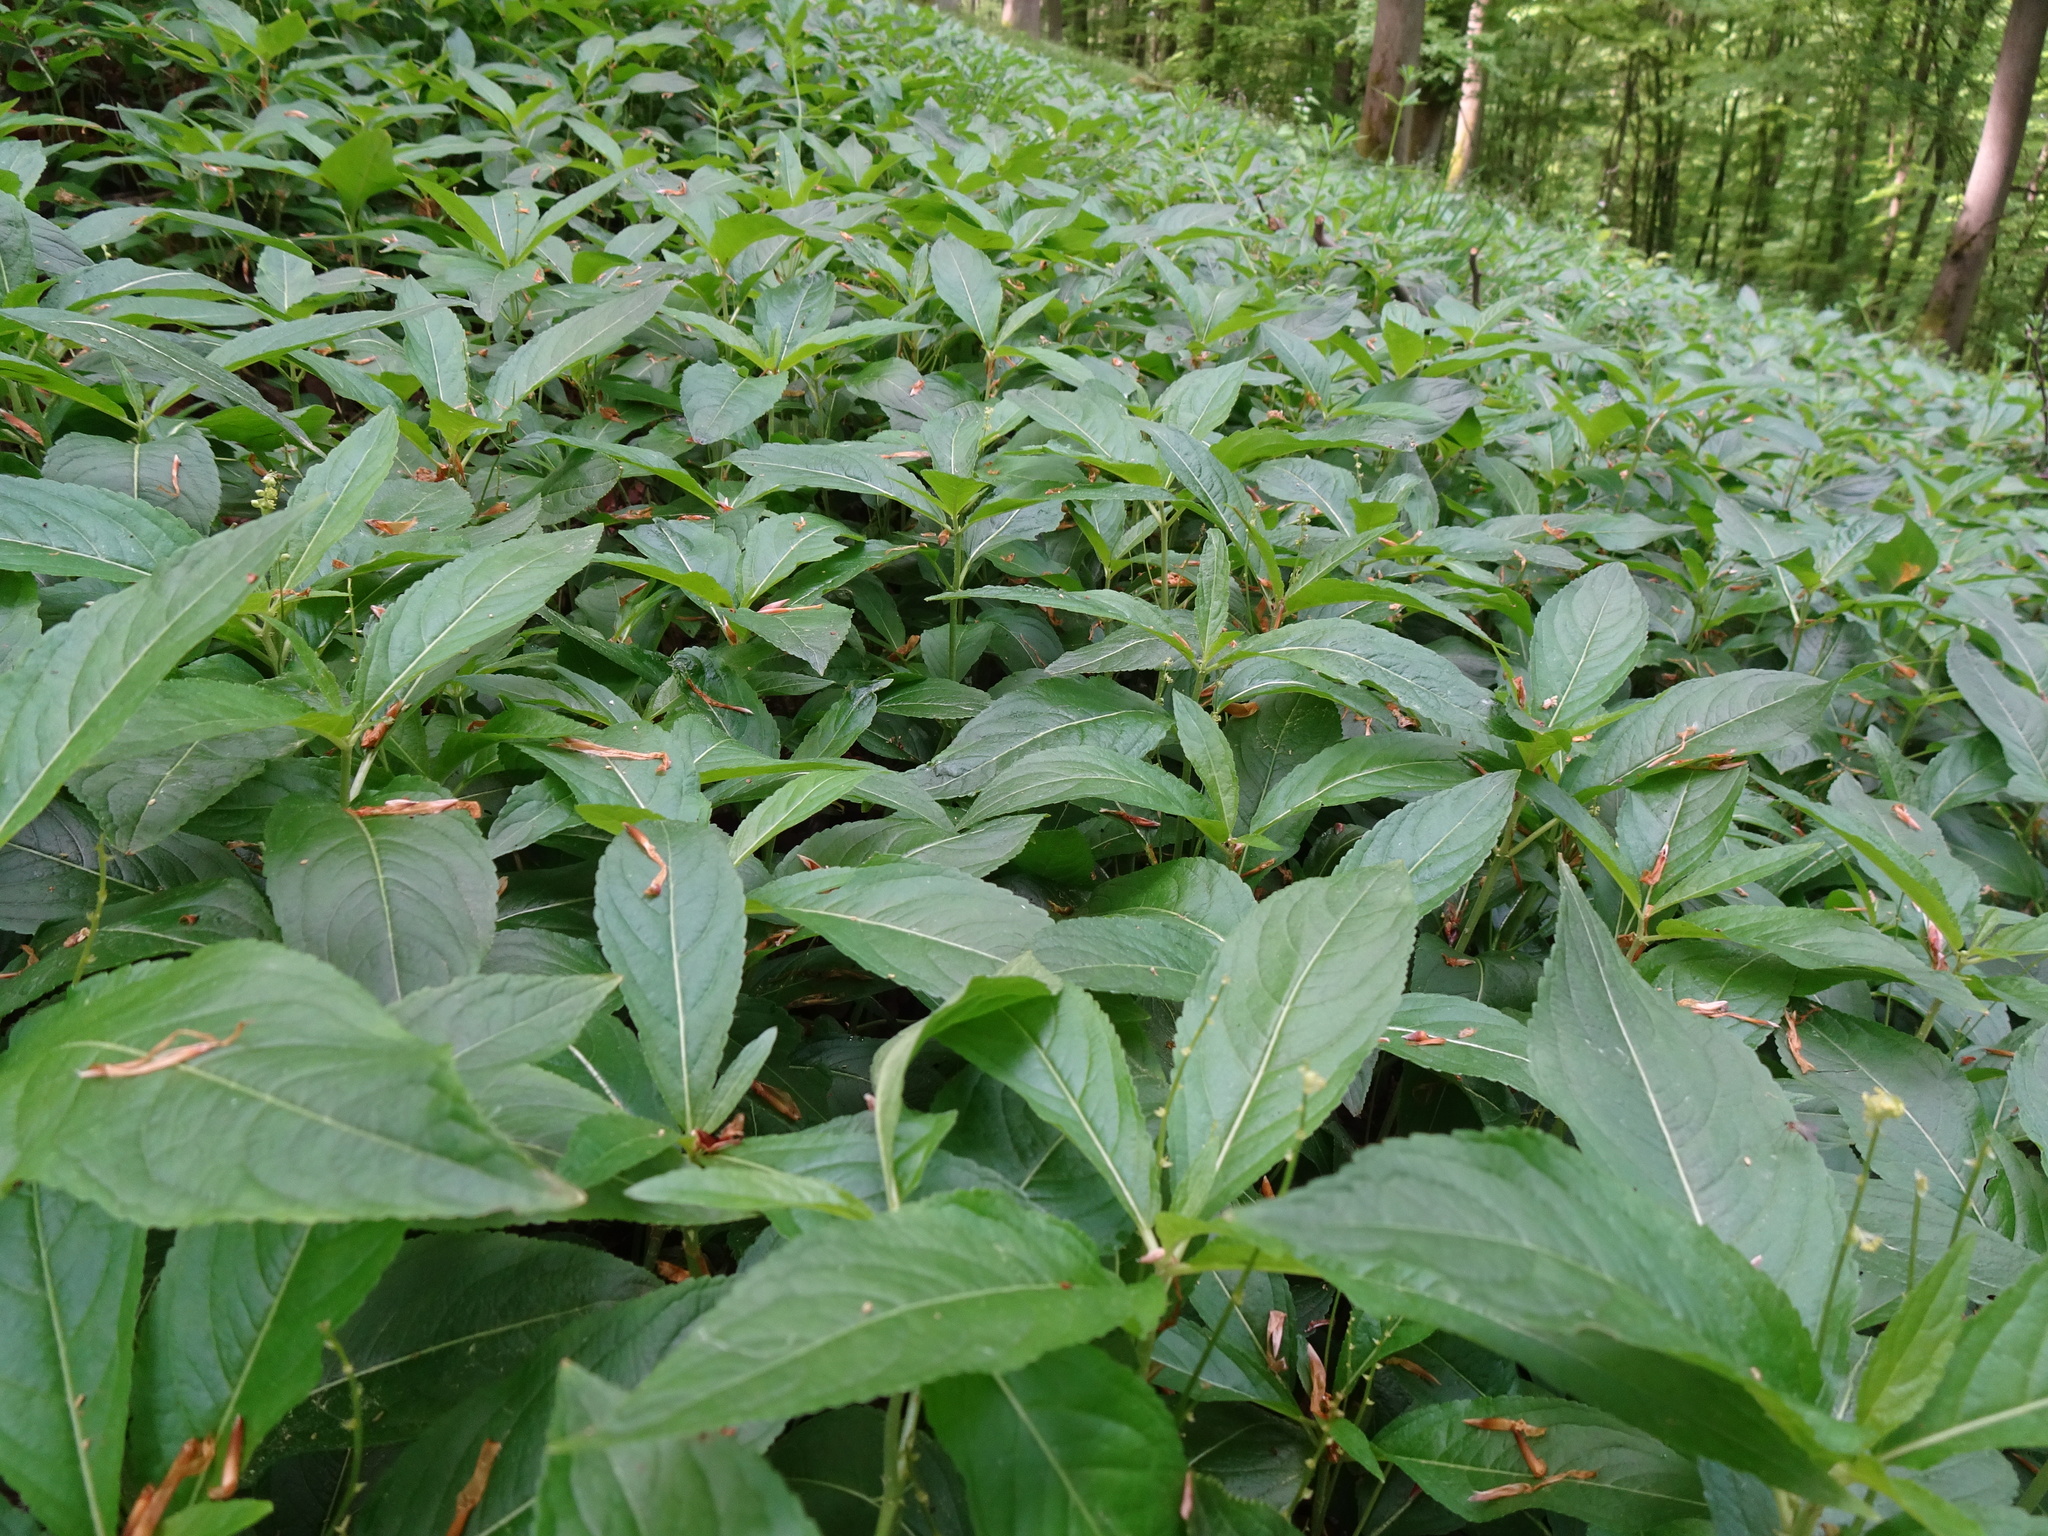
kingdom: Plantae
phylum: Tracheophyta
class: Magnoliopsida
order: Malpighiales
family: Euphorbiaceae
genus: Mercurialis
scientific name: Mercurialis perennis
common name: Dog mercury
